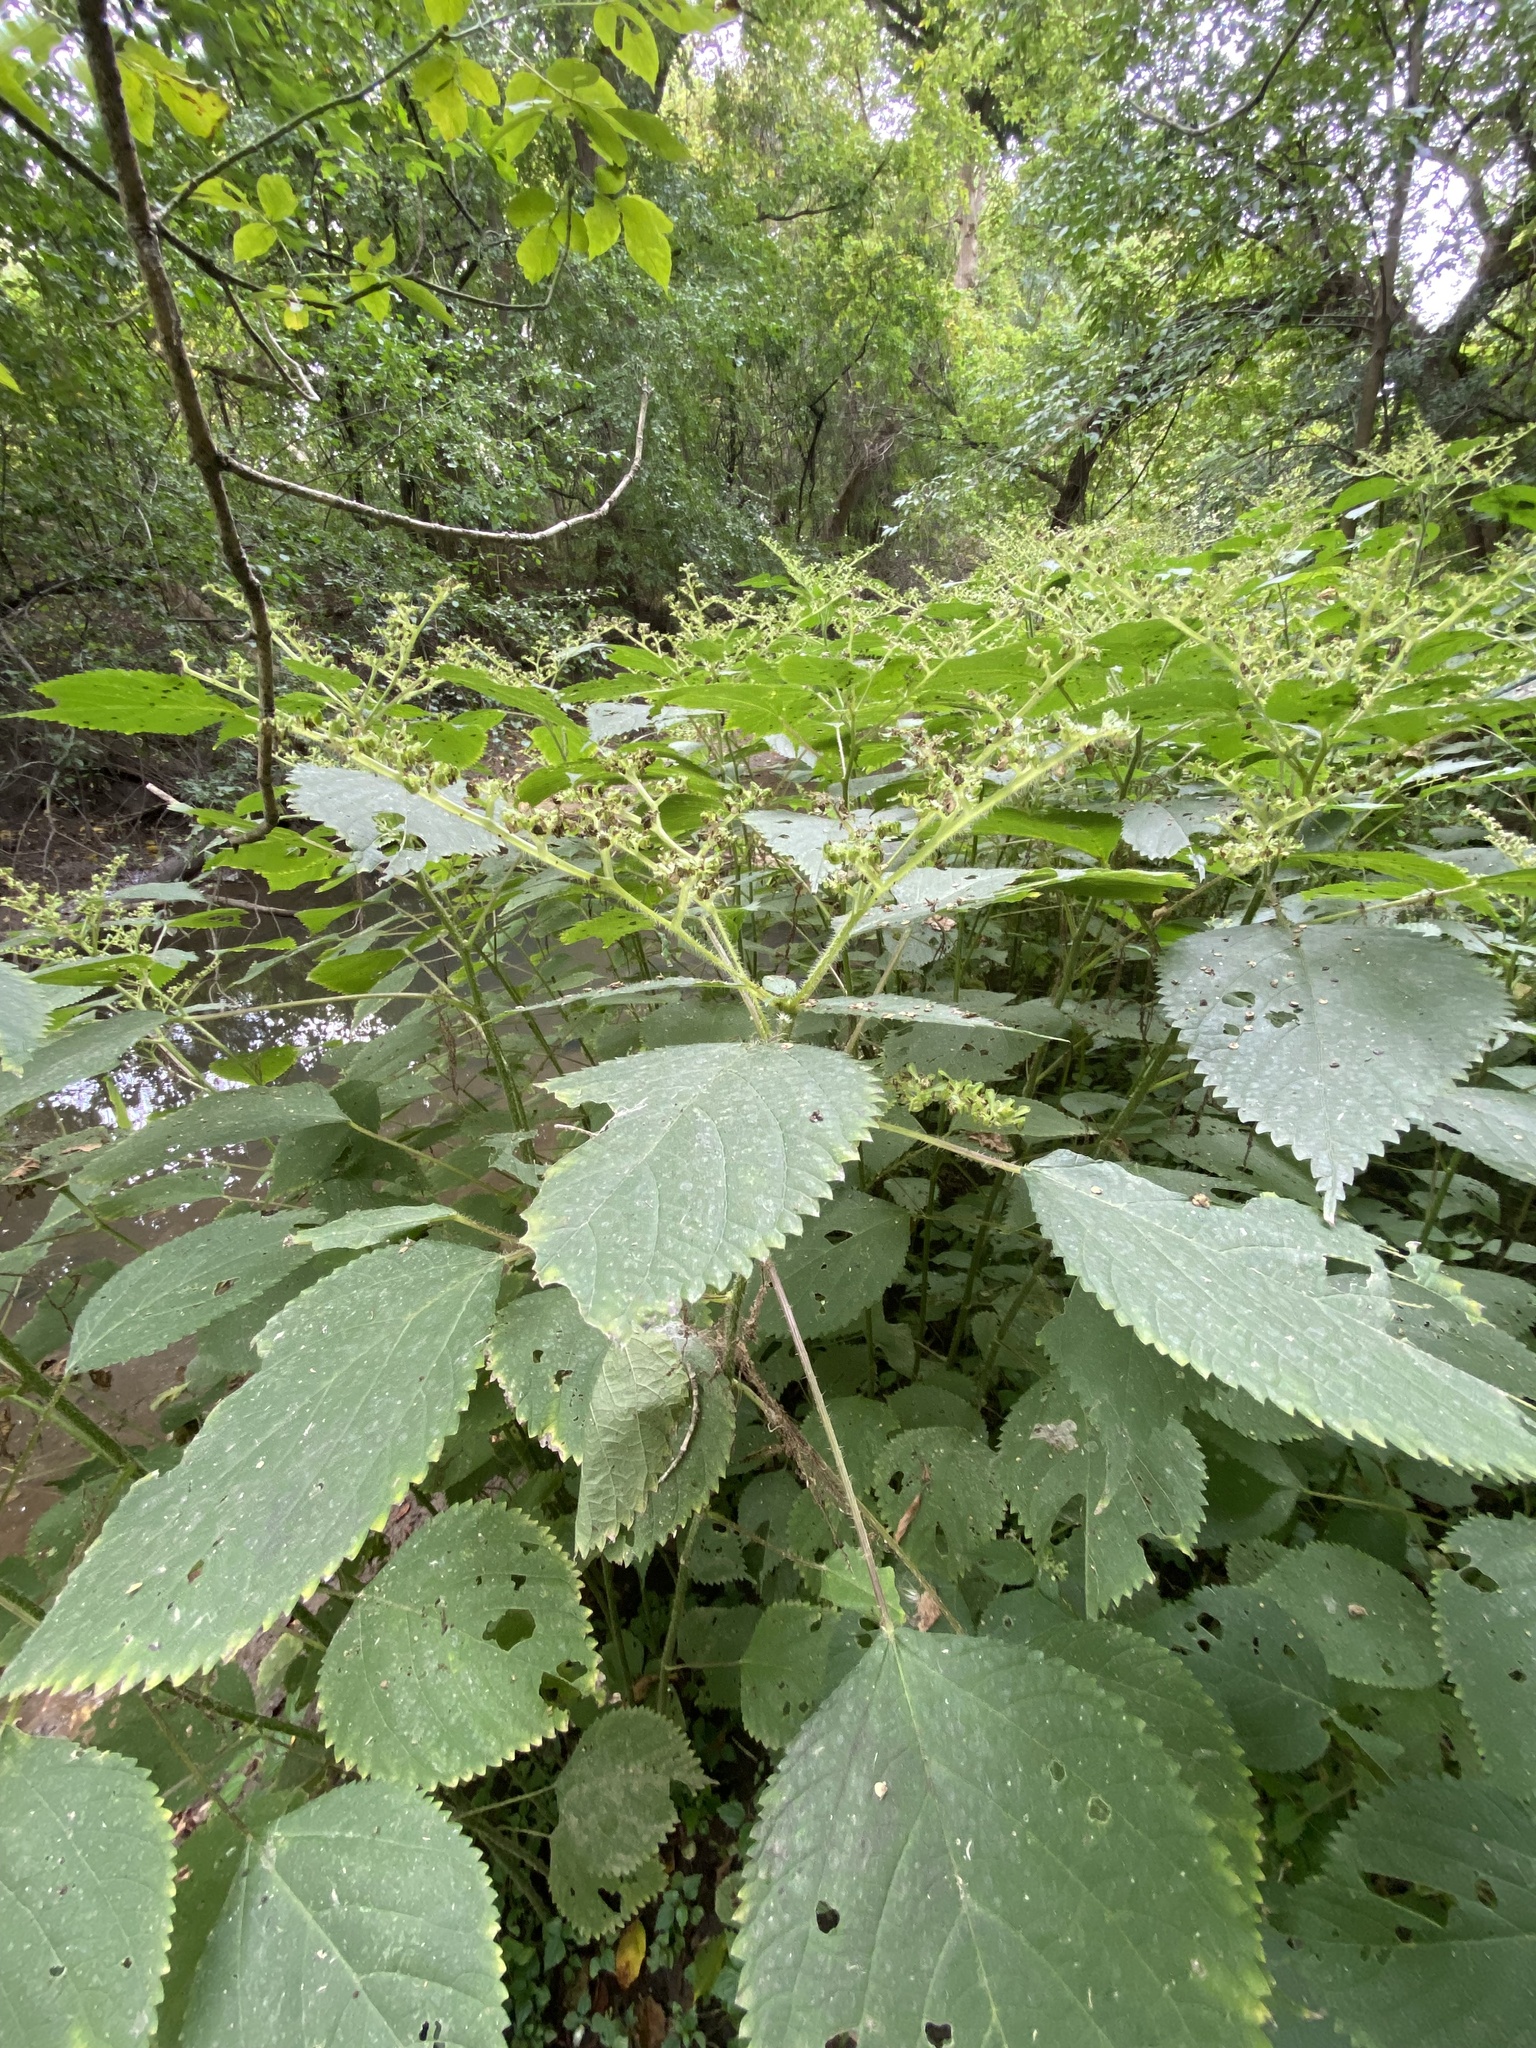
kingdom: Plantae
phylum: Tracheophyta
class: Magnoliopsida
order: Rosales
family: Urticaceae
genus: Laportea
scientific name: Laportea canadensis
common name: Canada nettle
